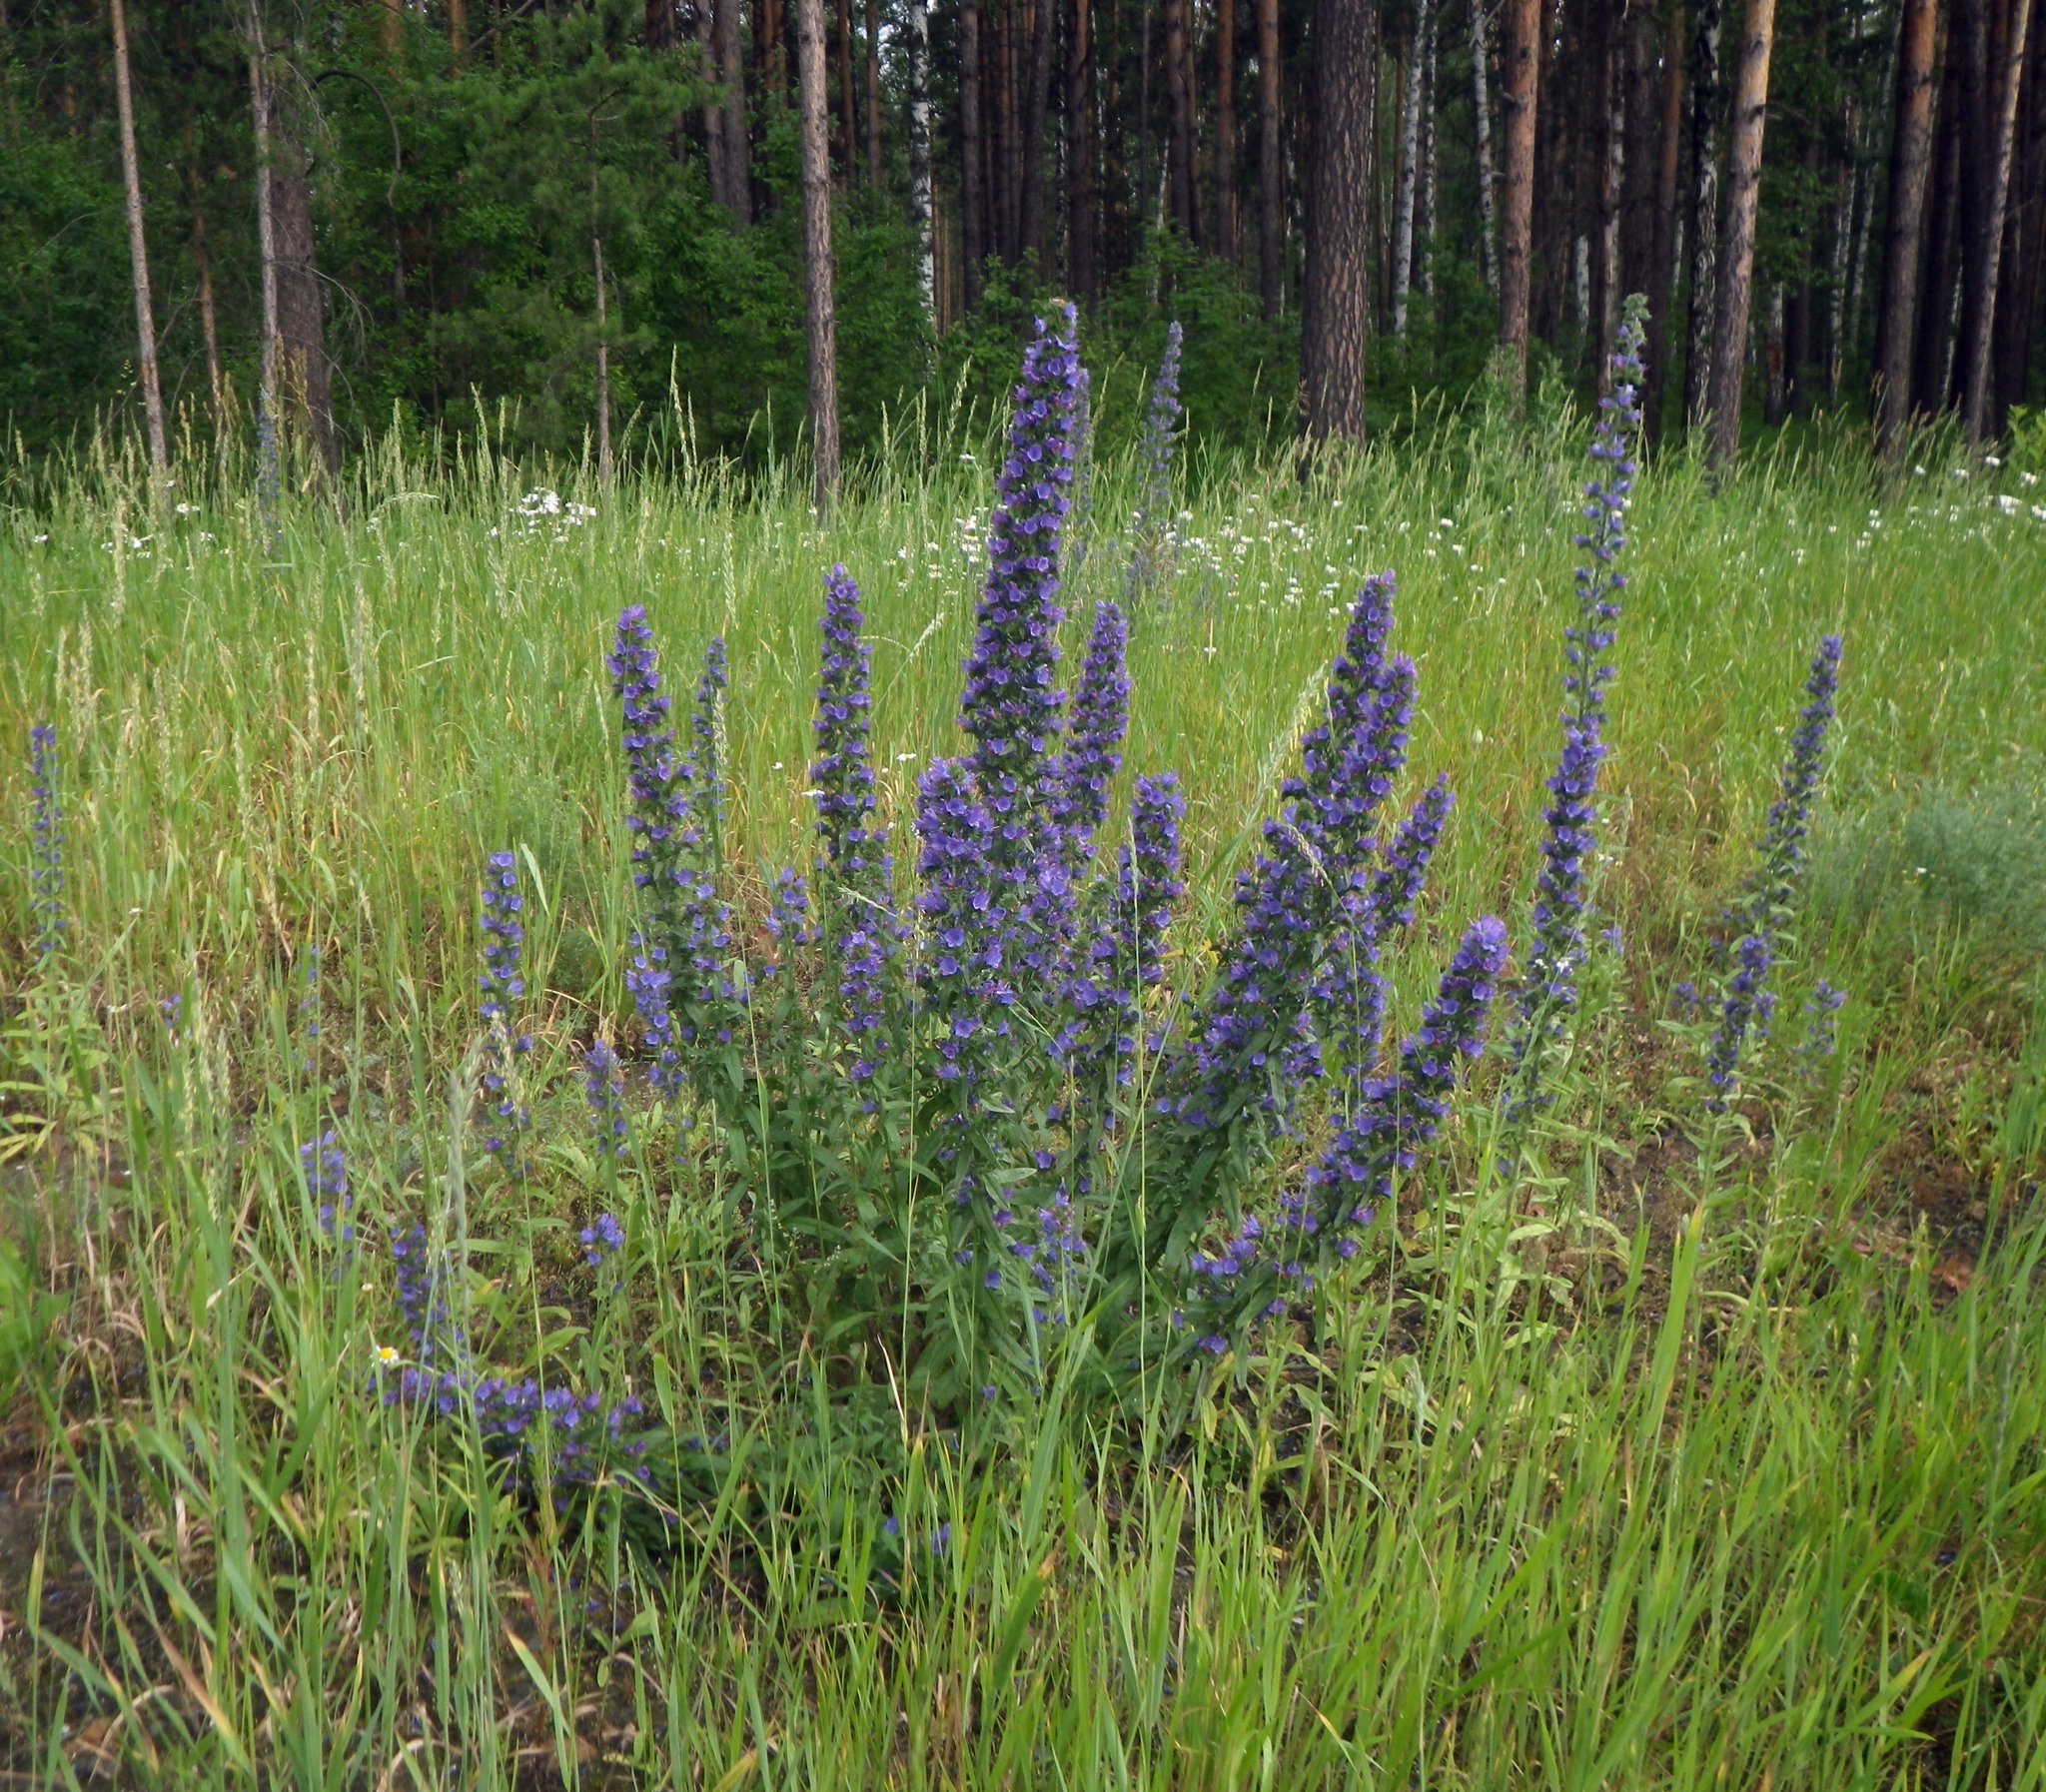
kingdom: Plantae
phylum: Tracheophyta
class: Magnoliopsida
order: Boraginales
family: Boraginaceae
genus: Echium
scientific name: Echium vulgare
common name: Common viper's bugloss
